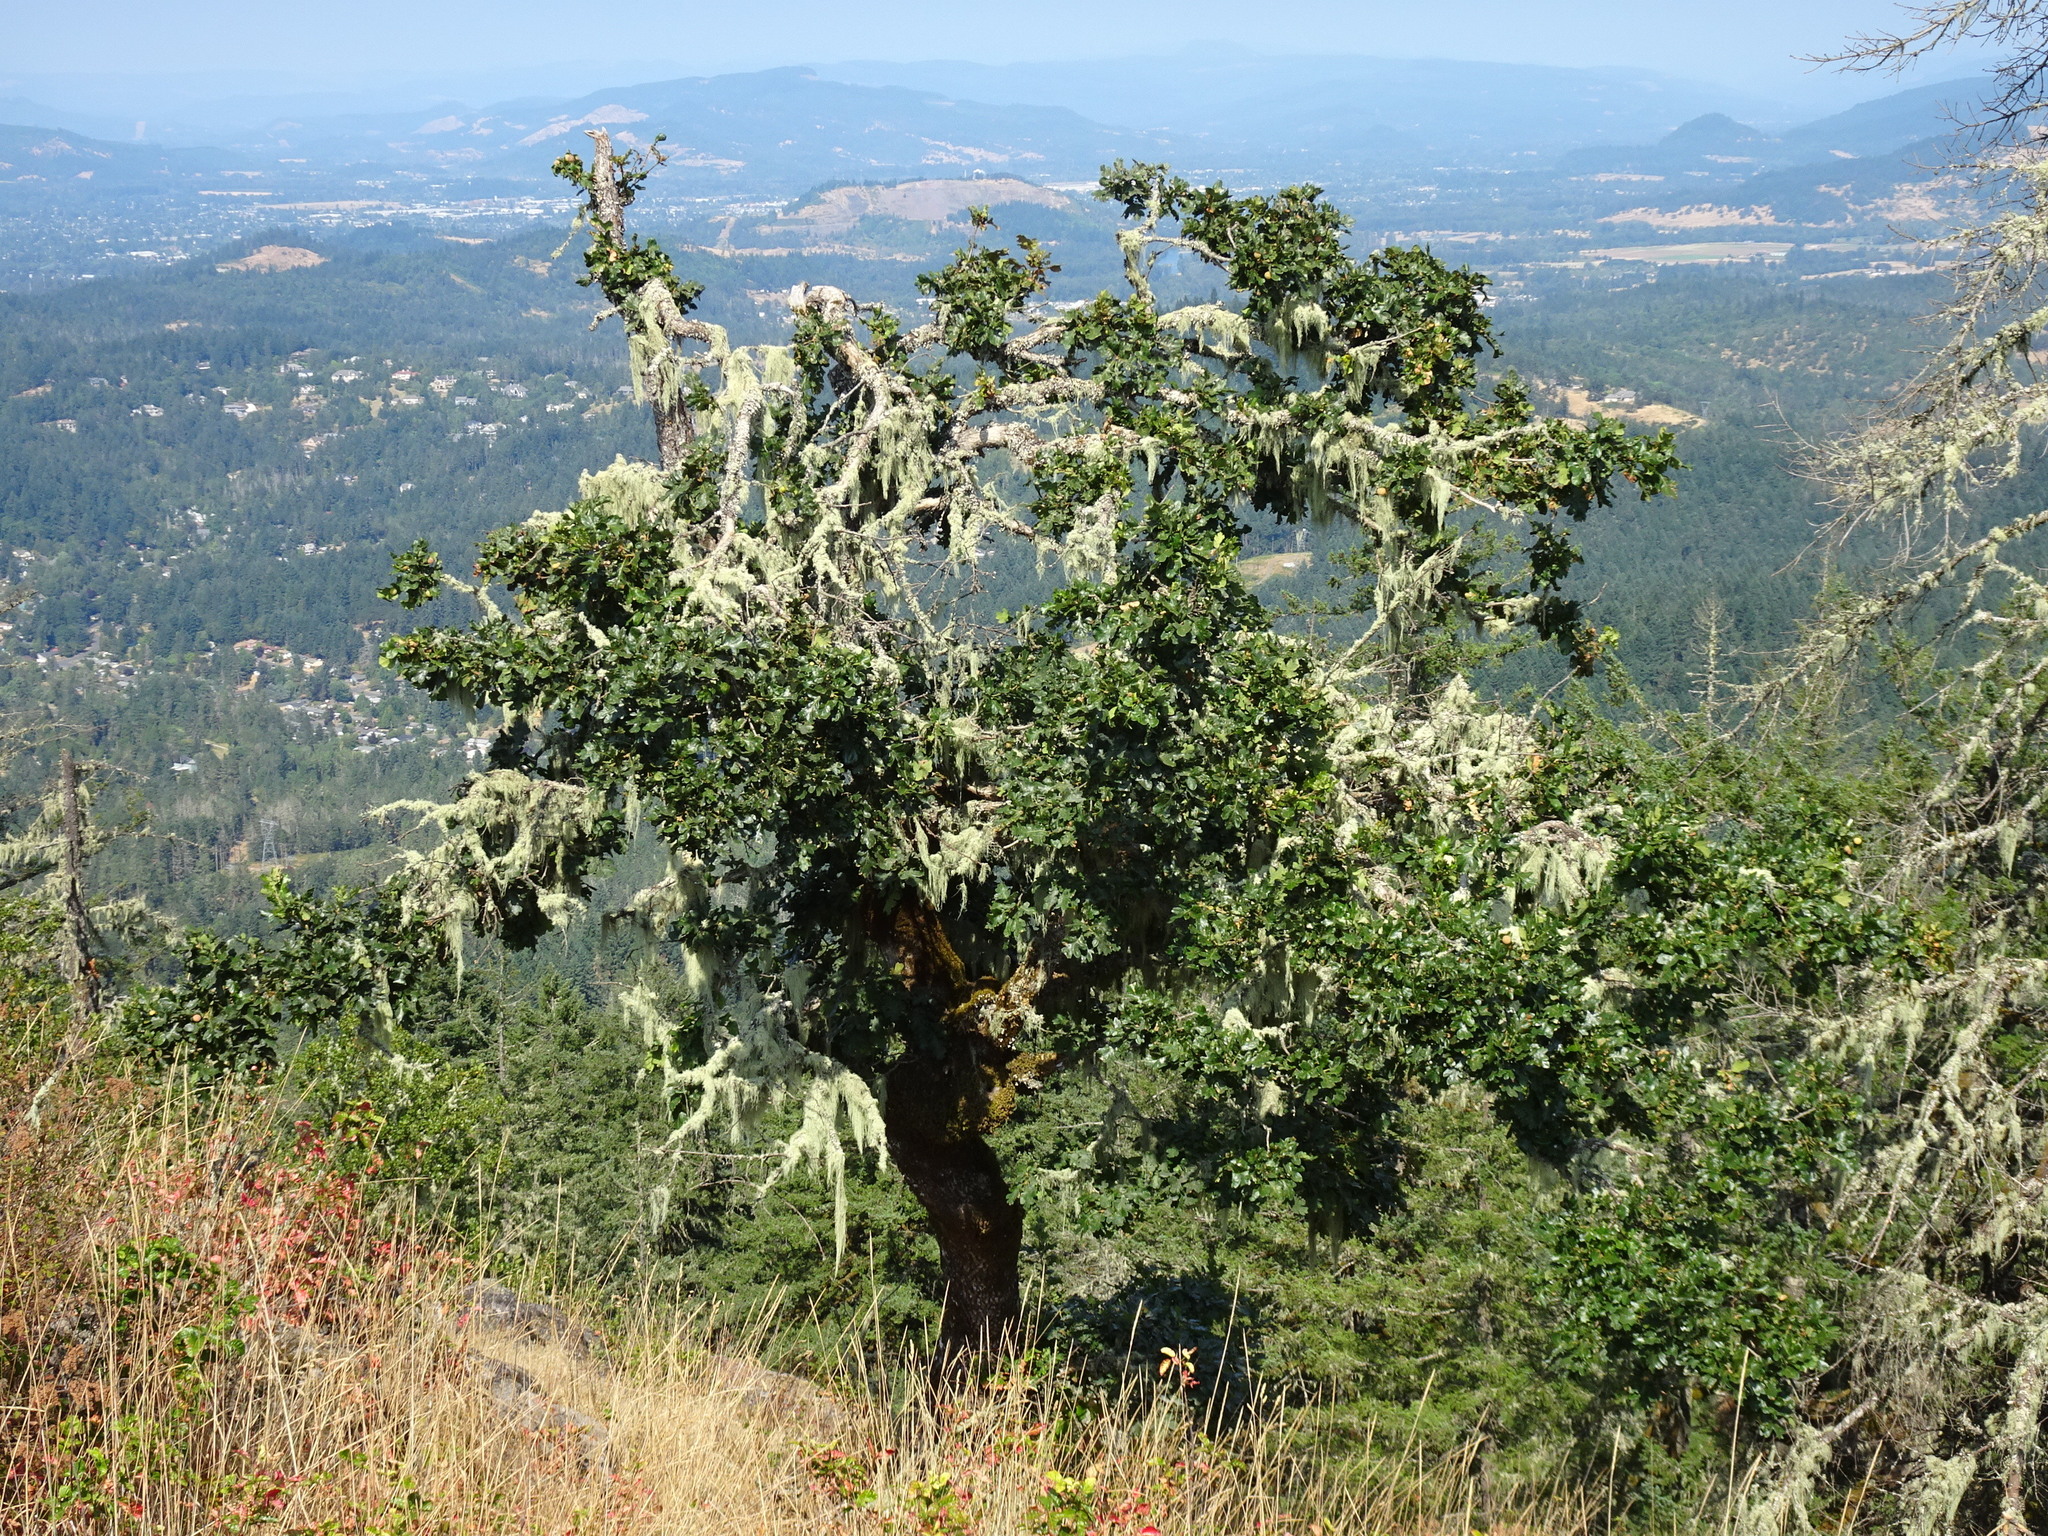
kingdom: Plantae
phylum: Tracheophyta
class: Magnoliopsida
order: Fagales
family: Fagaceae
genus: Quercus
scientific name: Quercus garryana
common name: Garry oak
